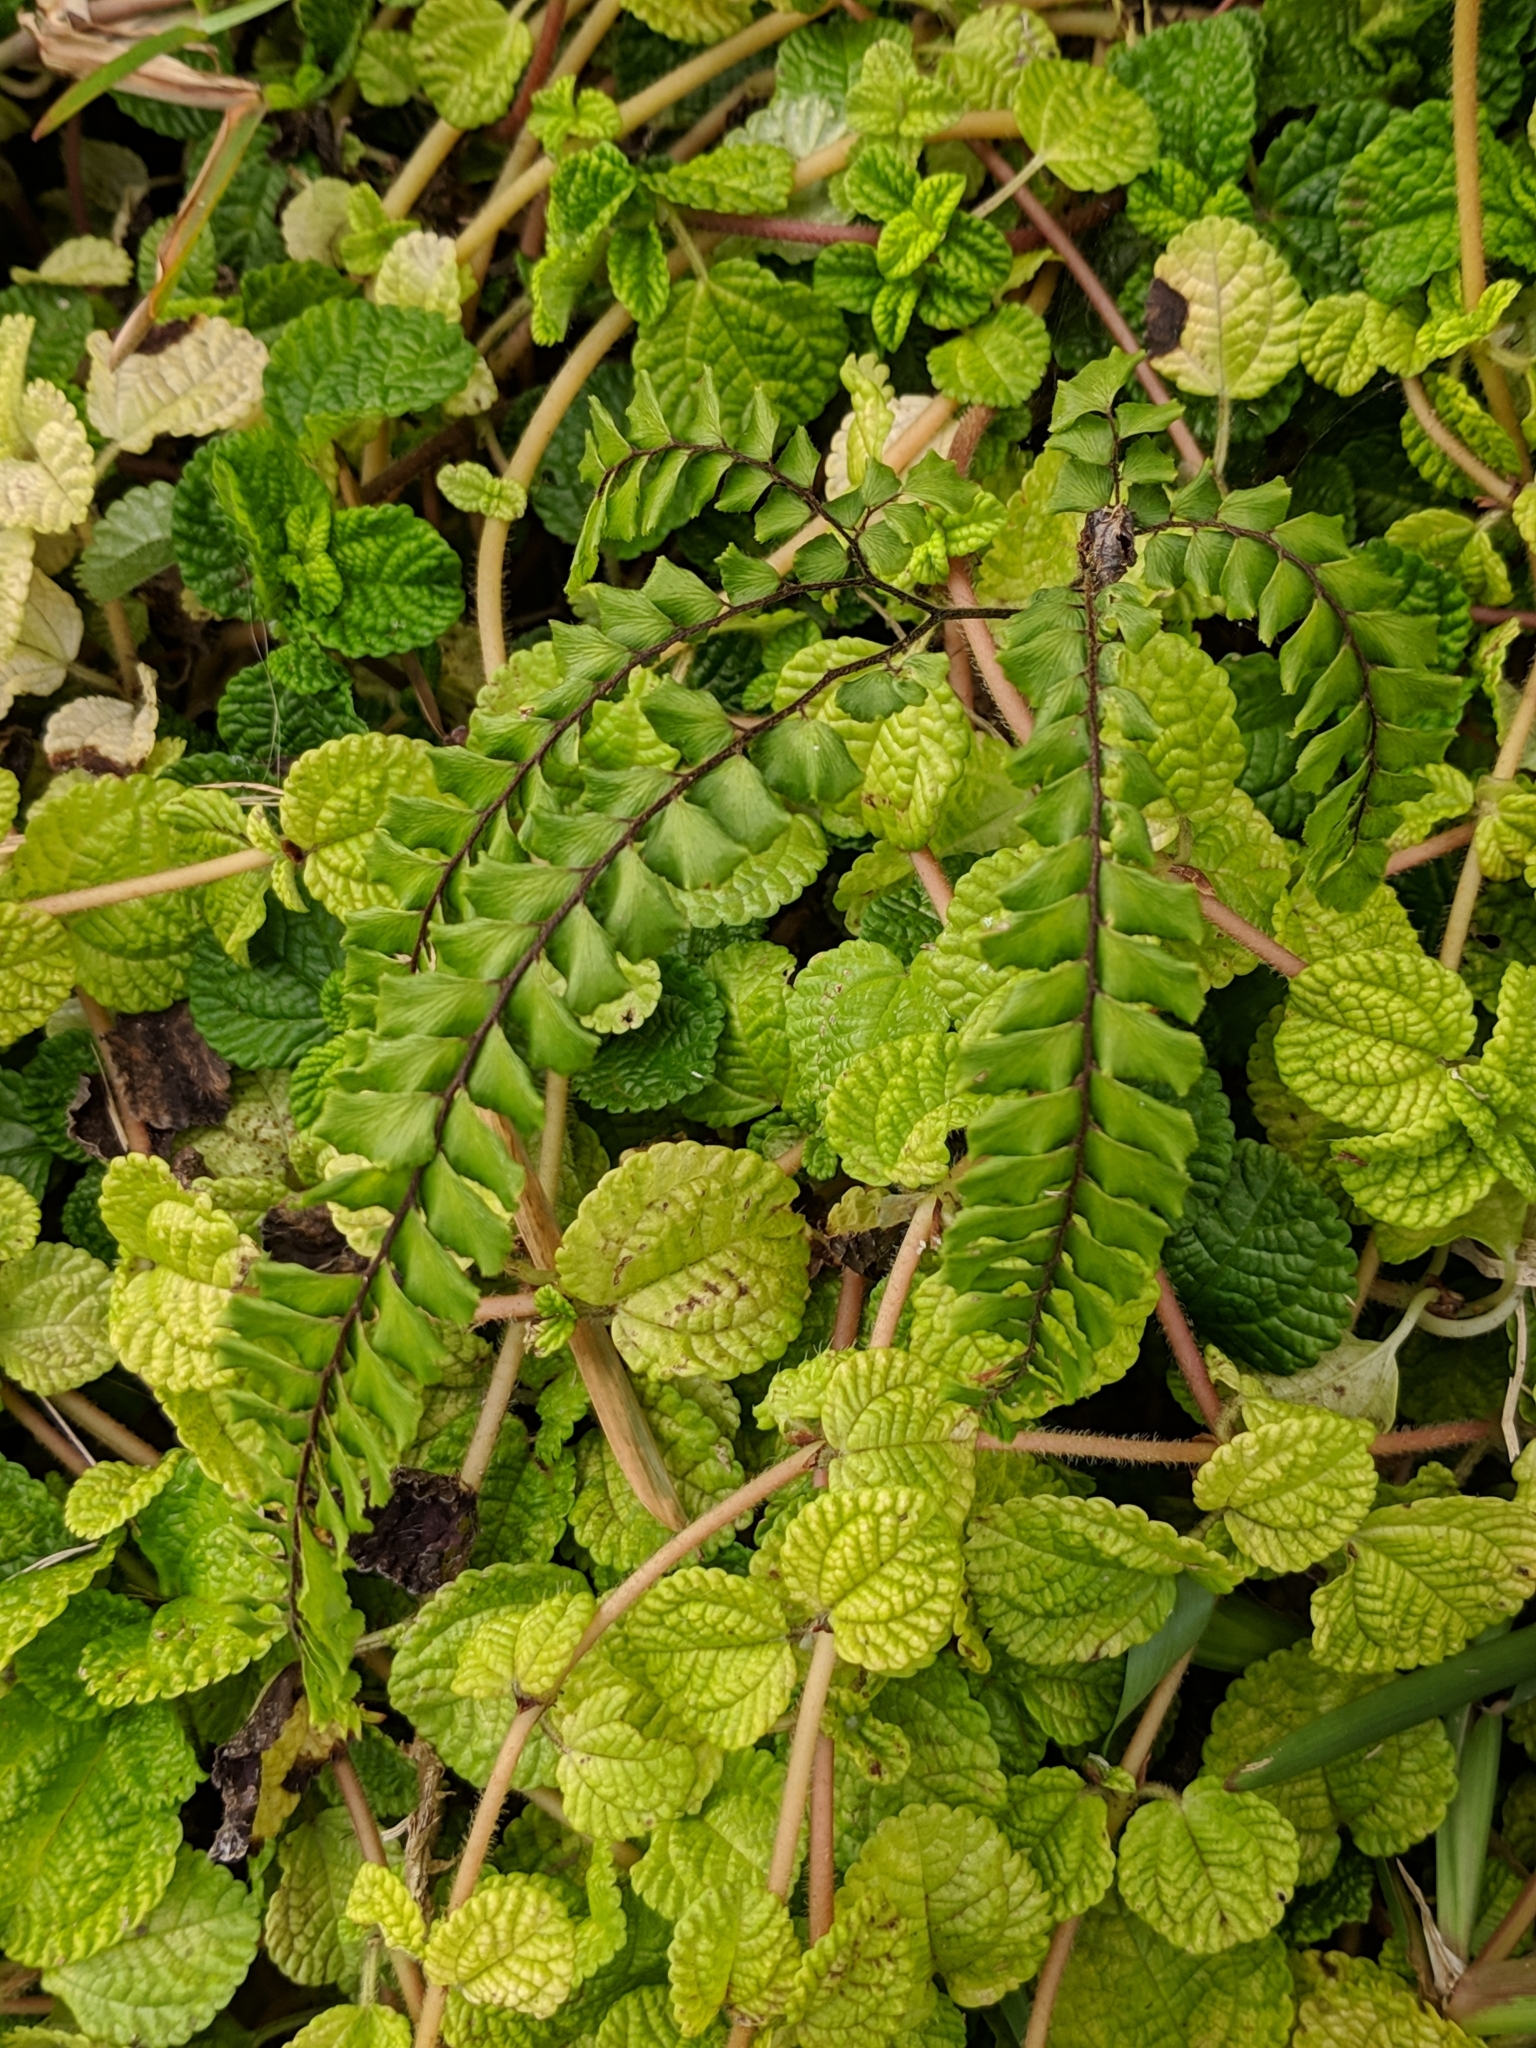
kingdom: Plantae
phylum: Tracheophyta
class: Polypodiopsida
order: Polypodiales
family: Pteridaceae
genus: Adiantum
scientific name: Adiantum hispidulum
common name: Rough maidenhair
